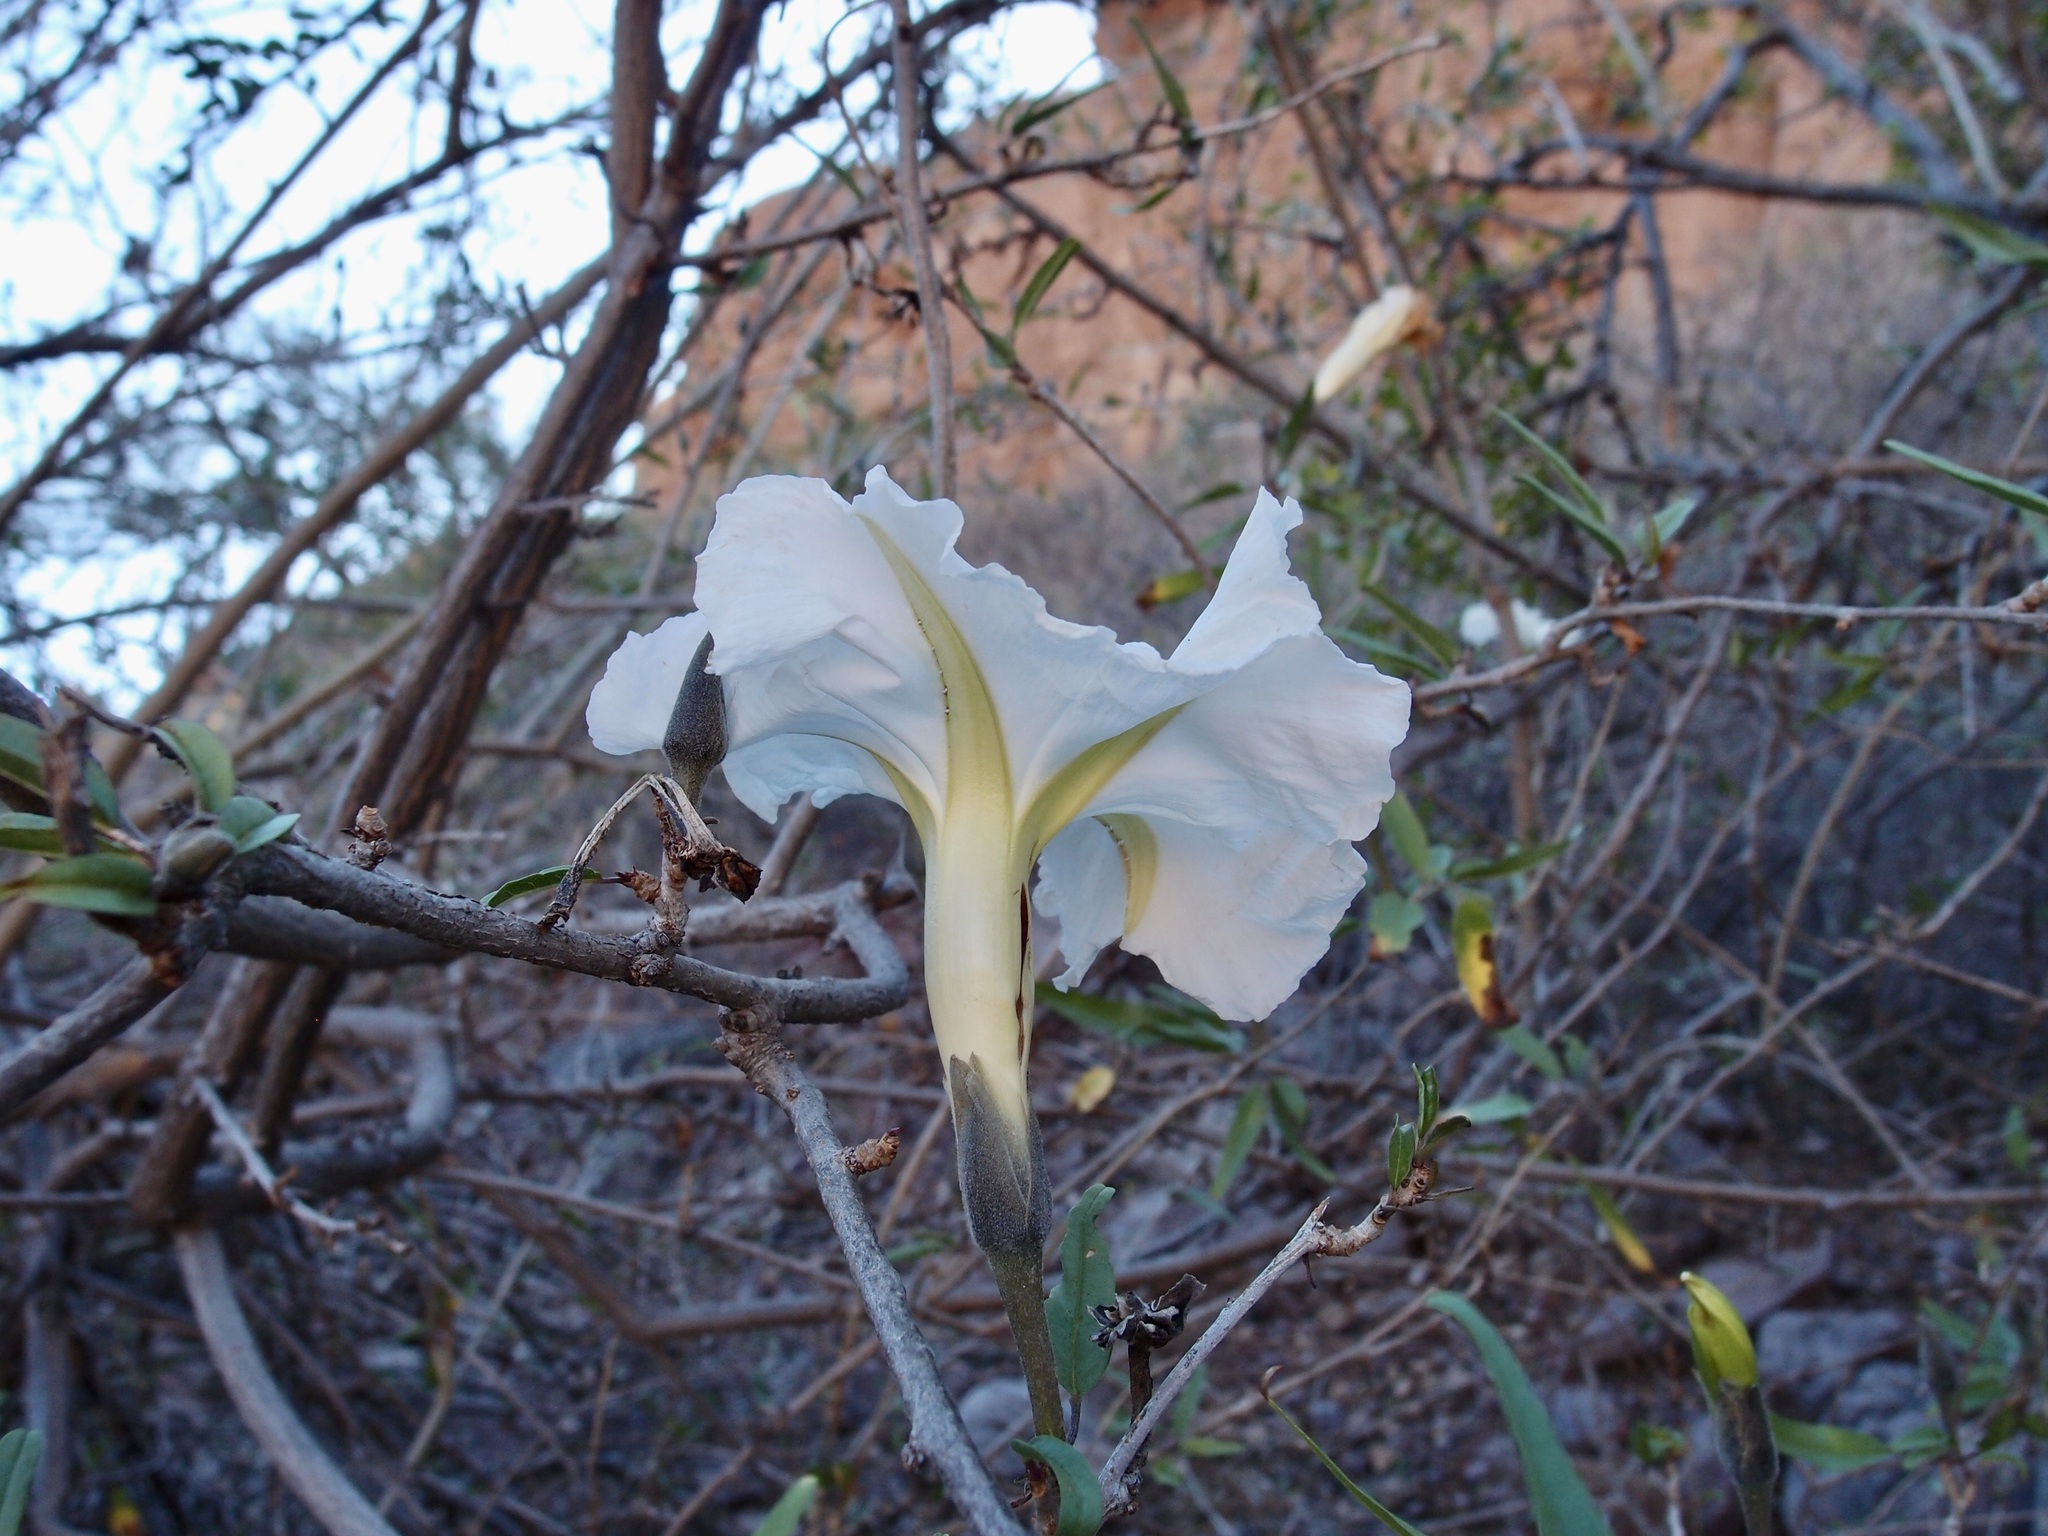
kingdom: Plantae
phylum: Tracheophyta
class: Magnoliopsida
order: Solanales
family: Convolvulaceae
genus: Ipomoea
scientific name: Ipomoea seaania
